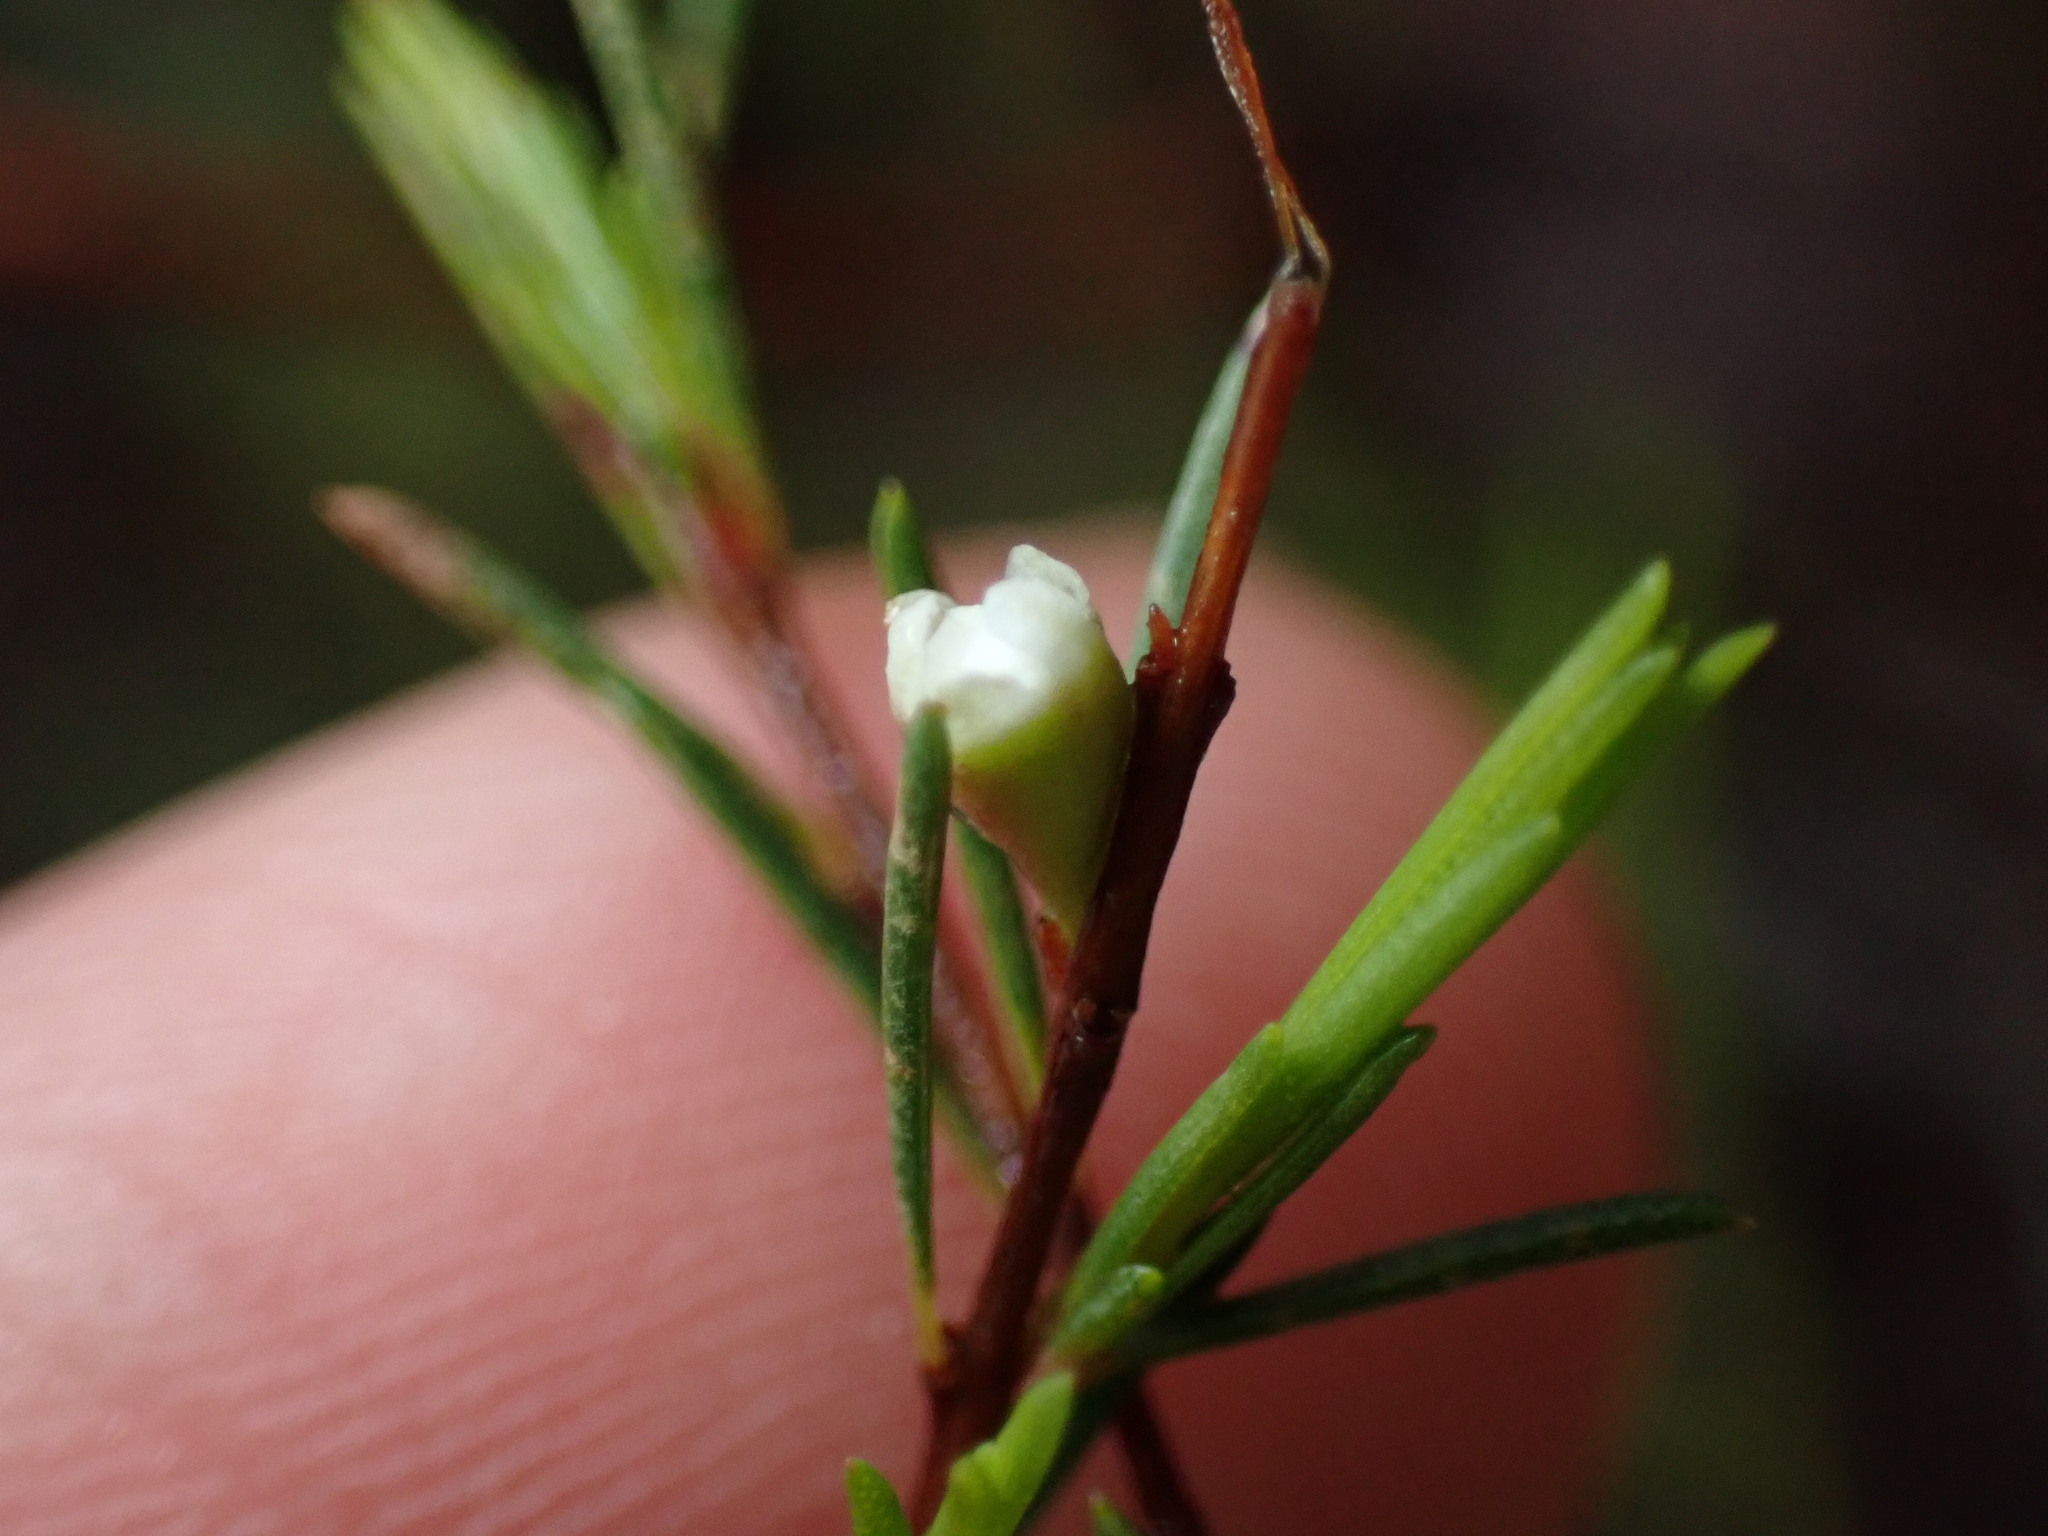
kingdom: Plantae
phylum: Tracheophyta
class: Magnoliopsida
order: Myrtales
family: Myrtaceae
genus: Baeckea
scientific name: Baeckea frutescens
